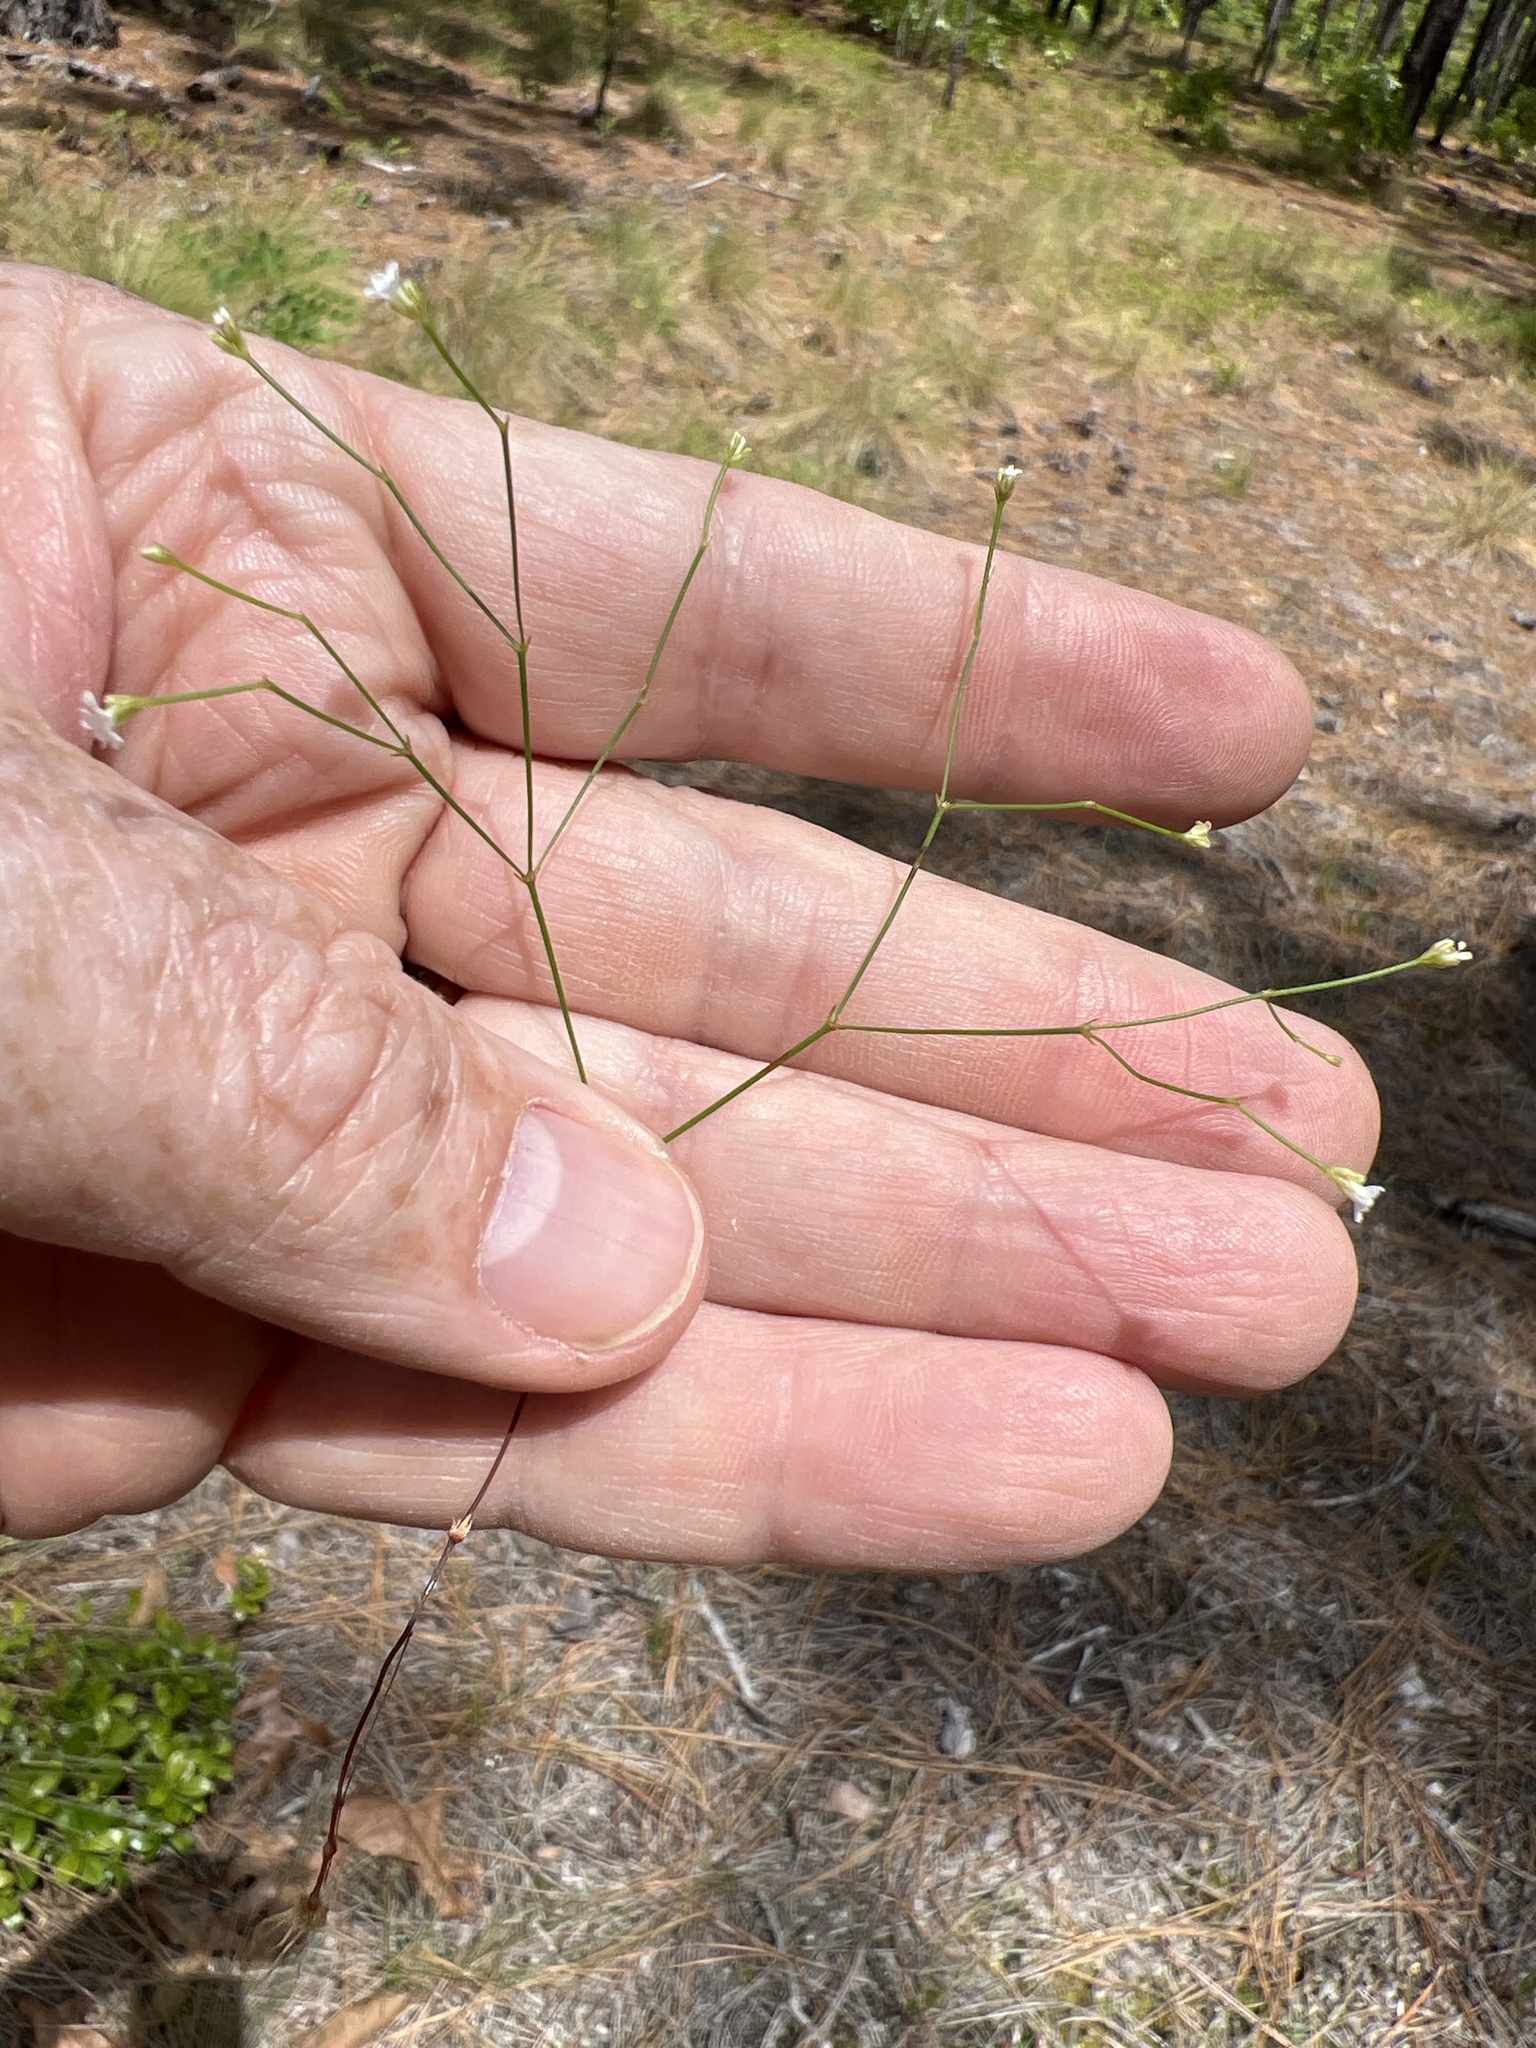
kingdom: Plantae
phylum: Tracheophyta
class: Magnoliopsida
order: Caryophyllales
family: Caryophyllaceae
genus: Stipulicida
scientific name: Stipulicida setacea
